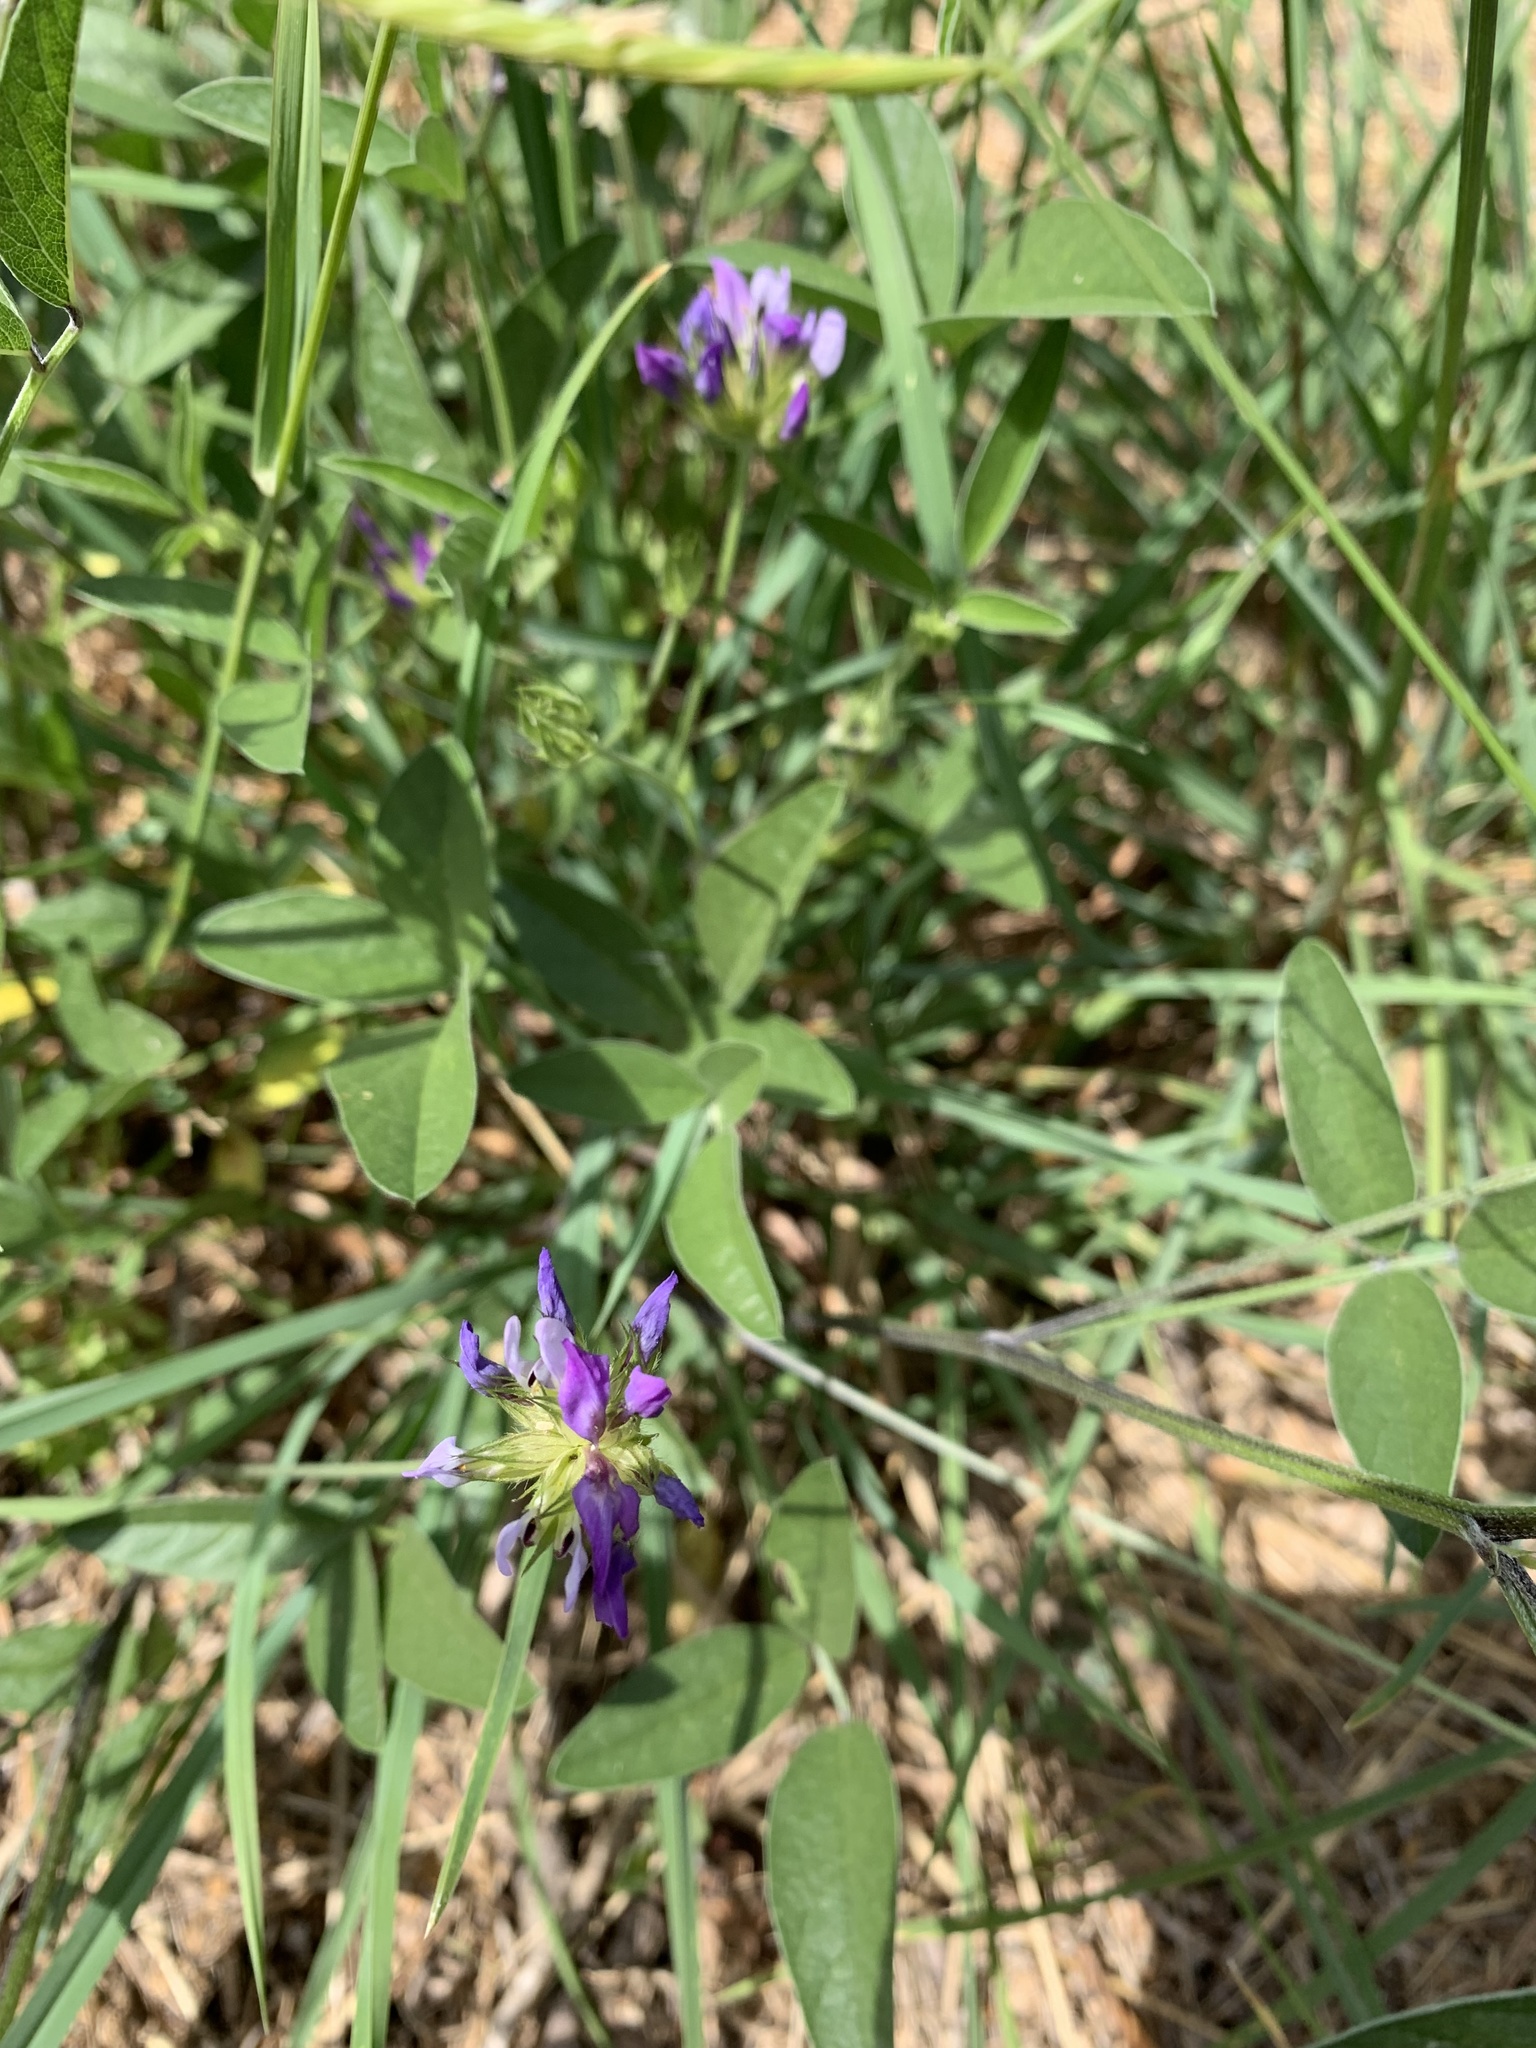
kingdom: Plantae
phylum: Tracheophyta
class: Magnoliopsida
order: Fabales
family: Fabaceae
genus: Bituminaria
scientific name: Bituminaria bituminosa
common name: Arabian pea
